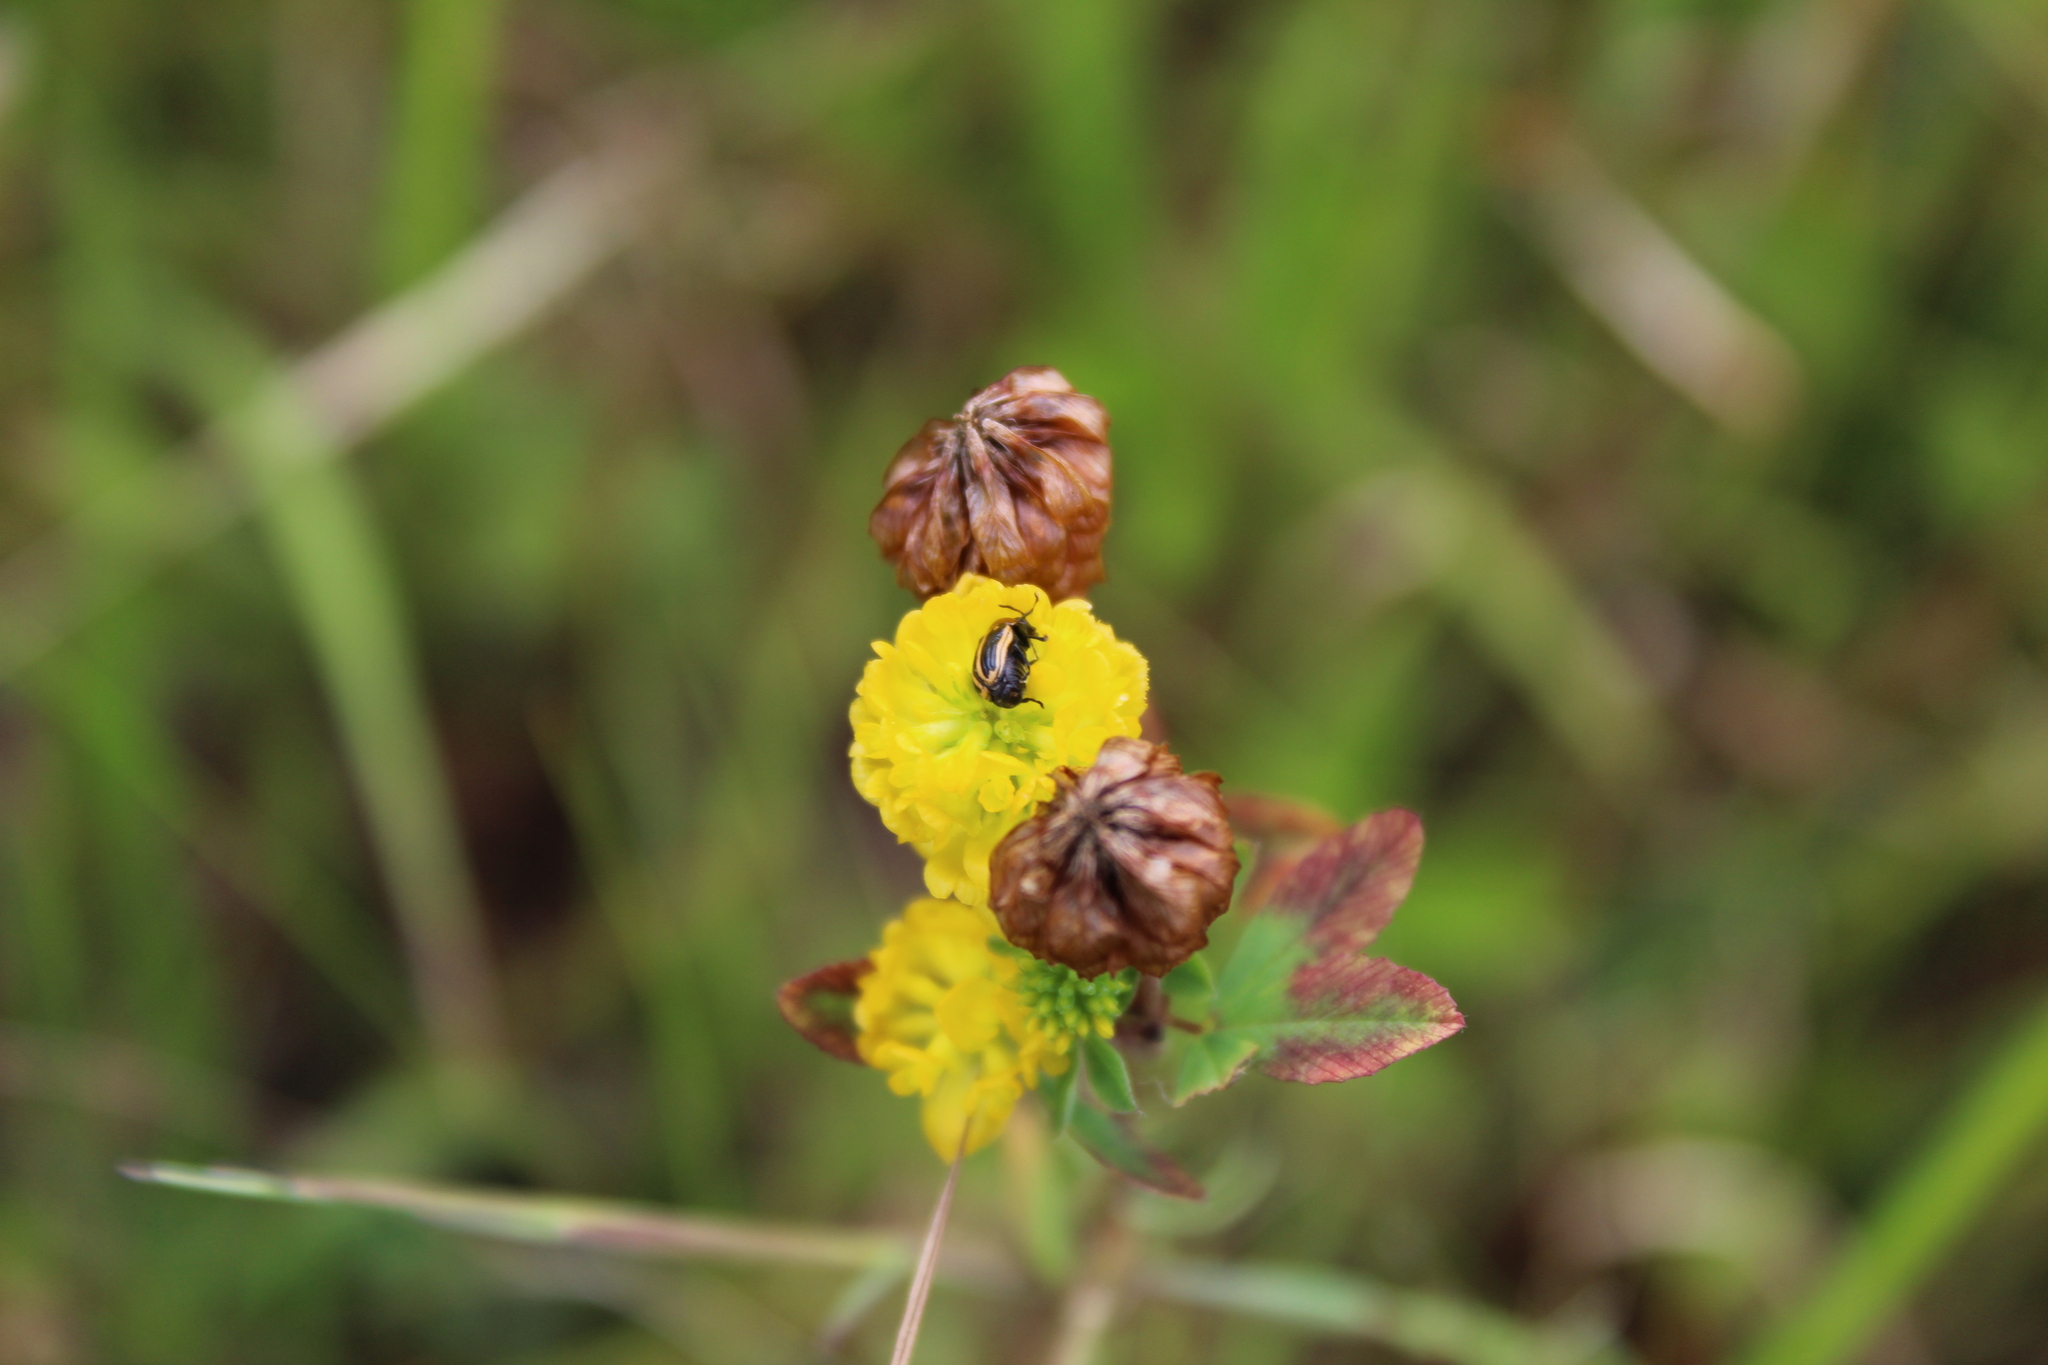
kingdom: Plantae
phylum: Tracheophyta
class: Magnoliopsida
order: Fabales
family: Fabaceae
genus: Trifolium
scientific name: Trifolium aureum
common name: Golden clover
